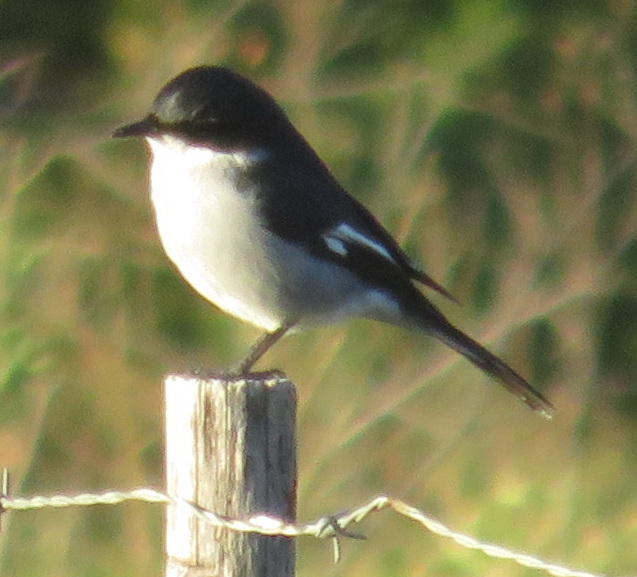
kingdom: Animalia
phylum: Chordata
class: Aves
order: Passeriformes
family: Muscicapidae
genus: Sigelus
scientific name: Sigelus silens
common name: Fiscal flycatcher
